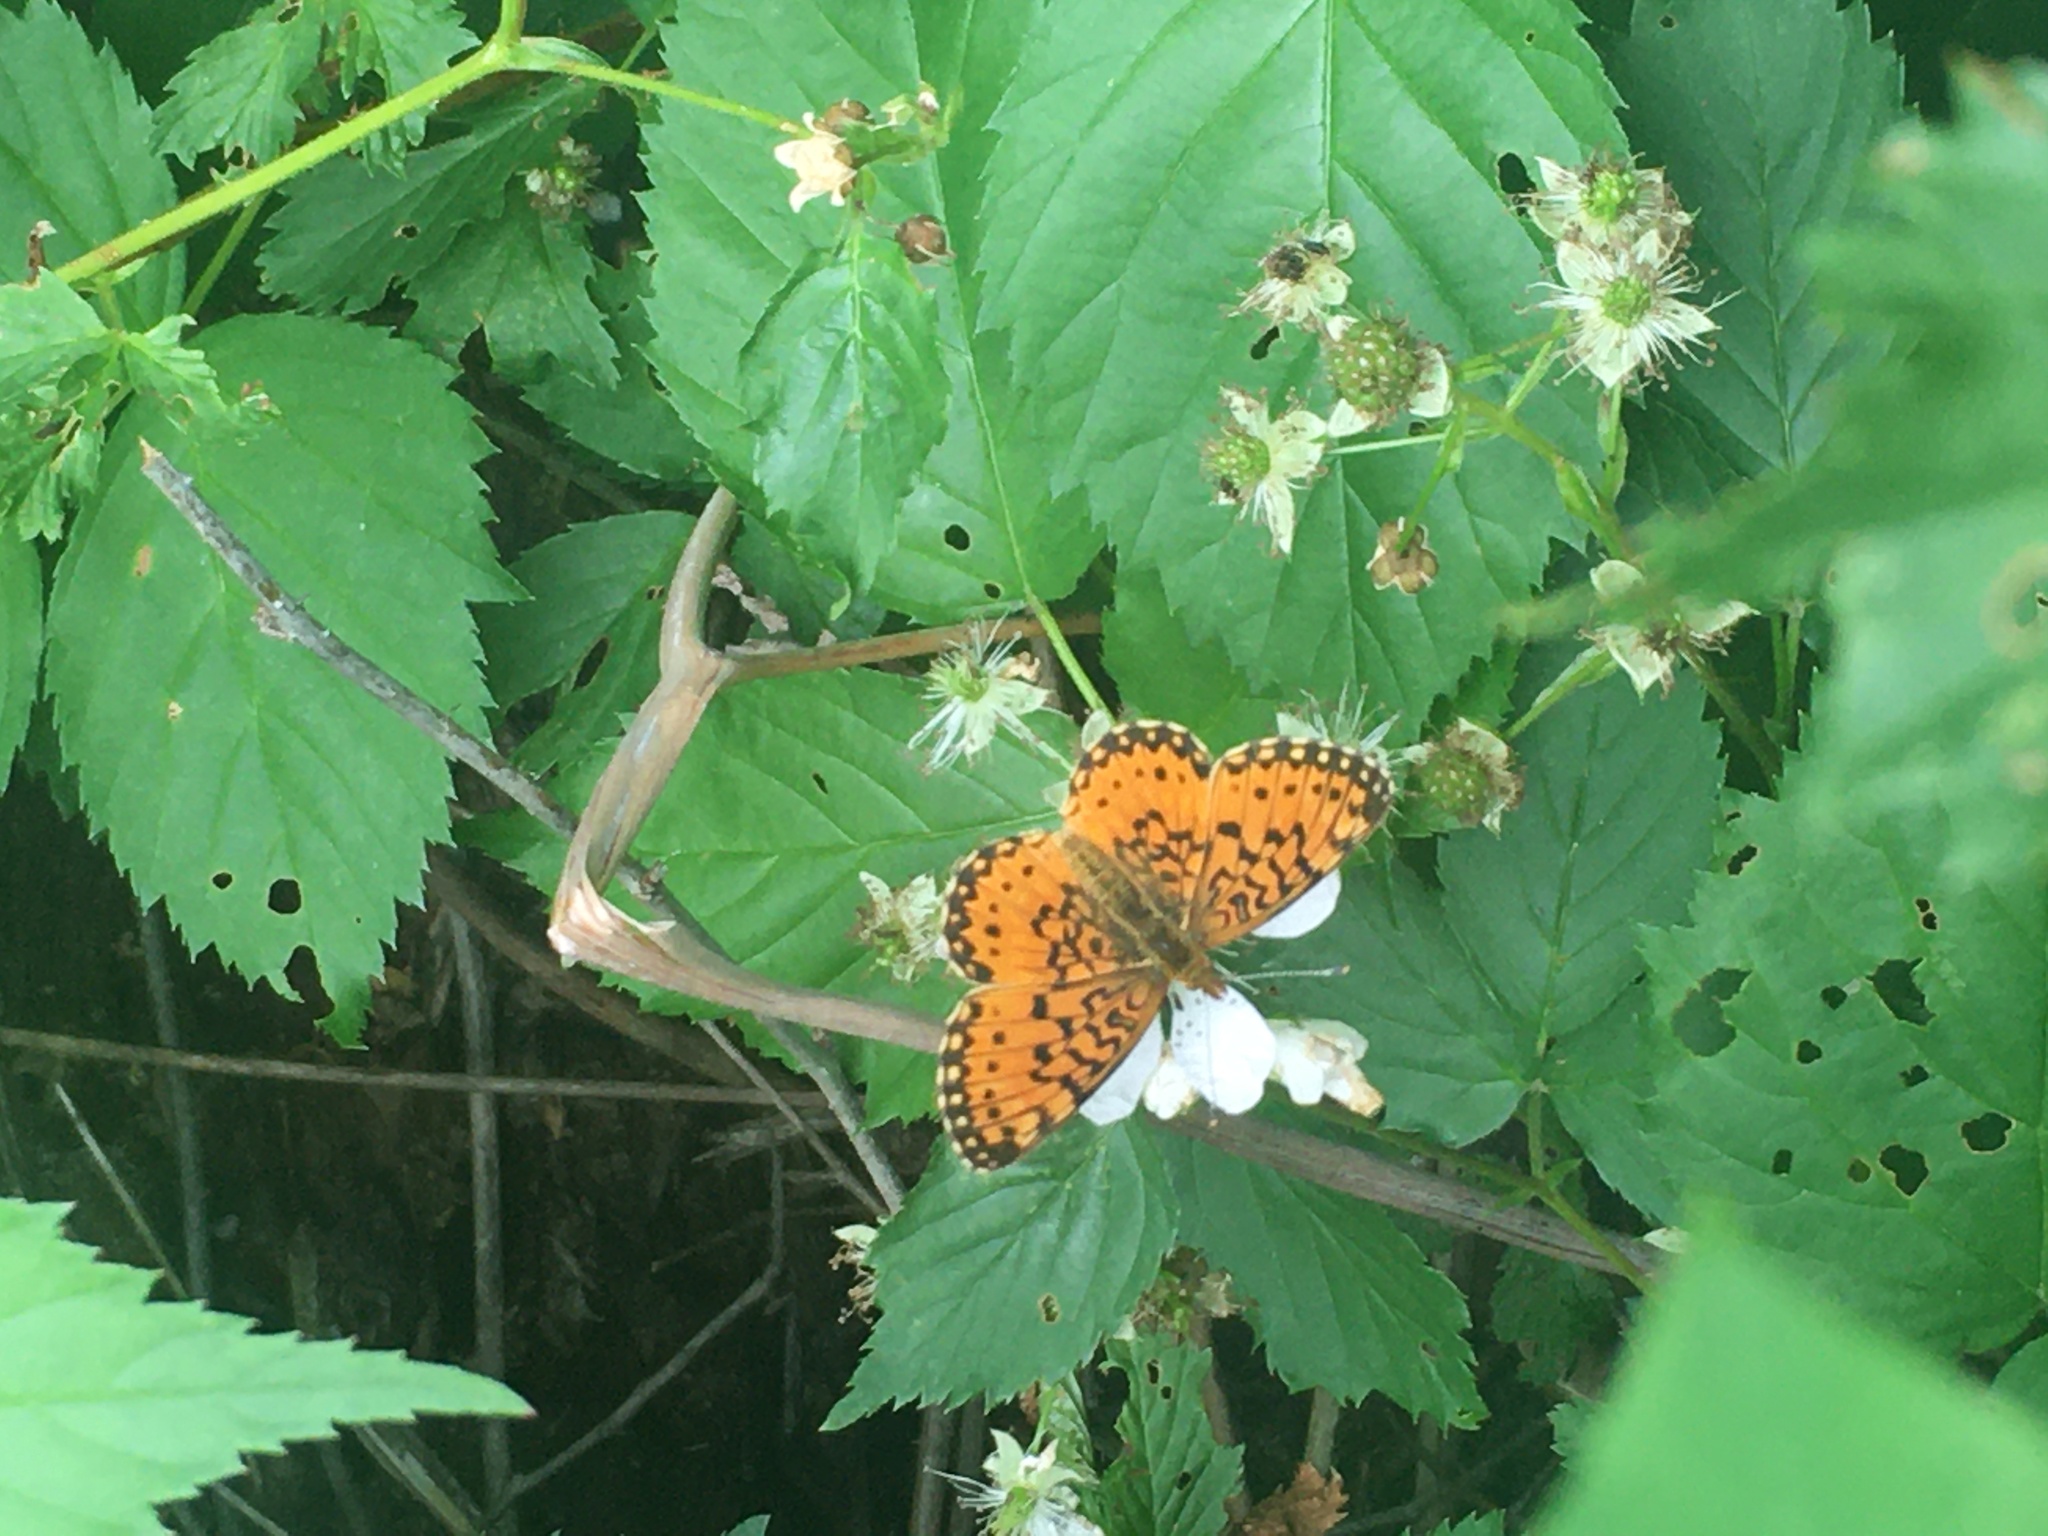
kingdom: Animalia
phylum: Arthropoda
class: Insecta
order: Lepidoptera
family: Nymphalidae
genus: Boloria
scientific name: Boloria
